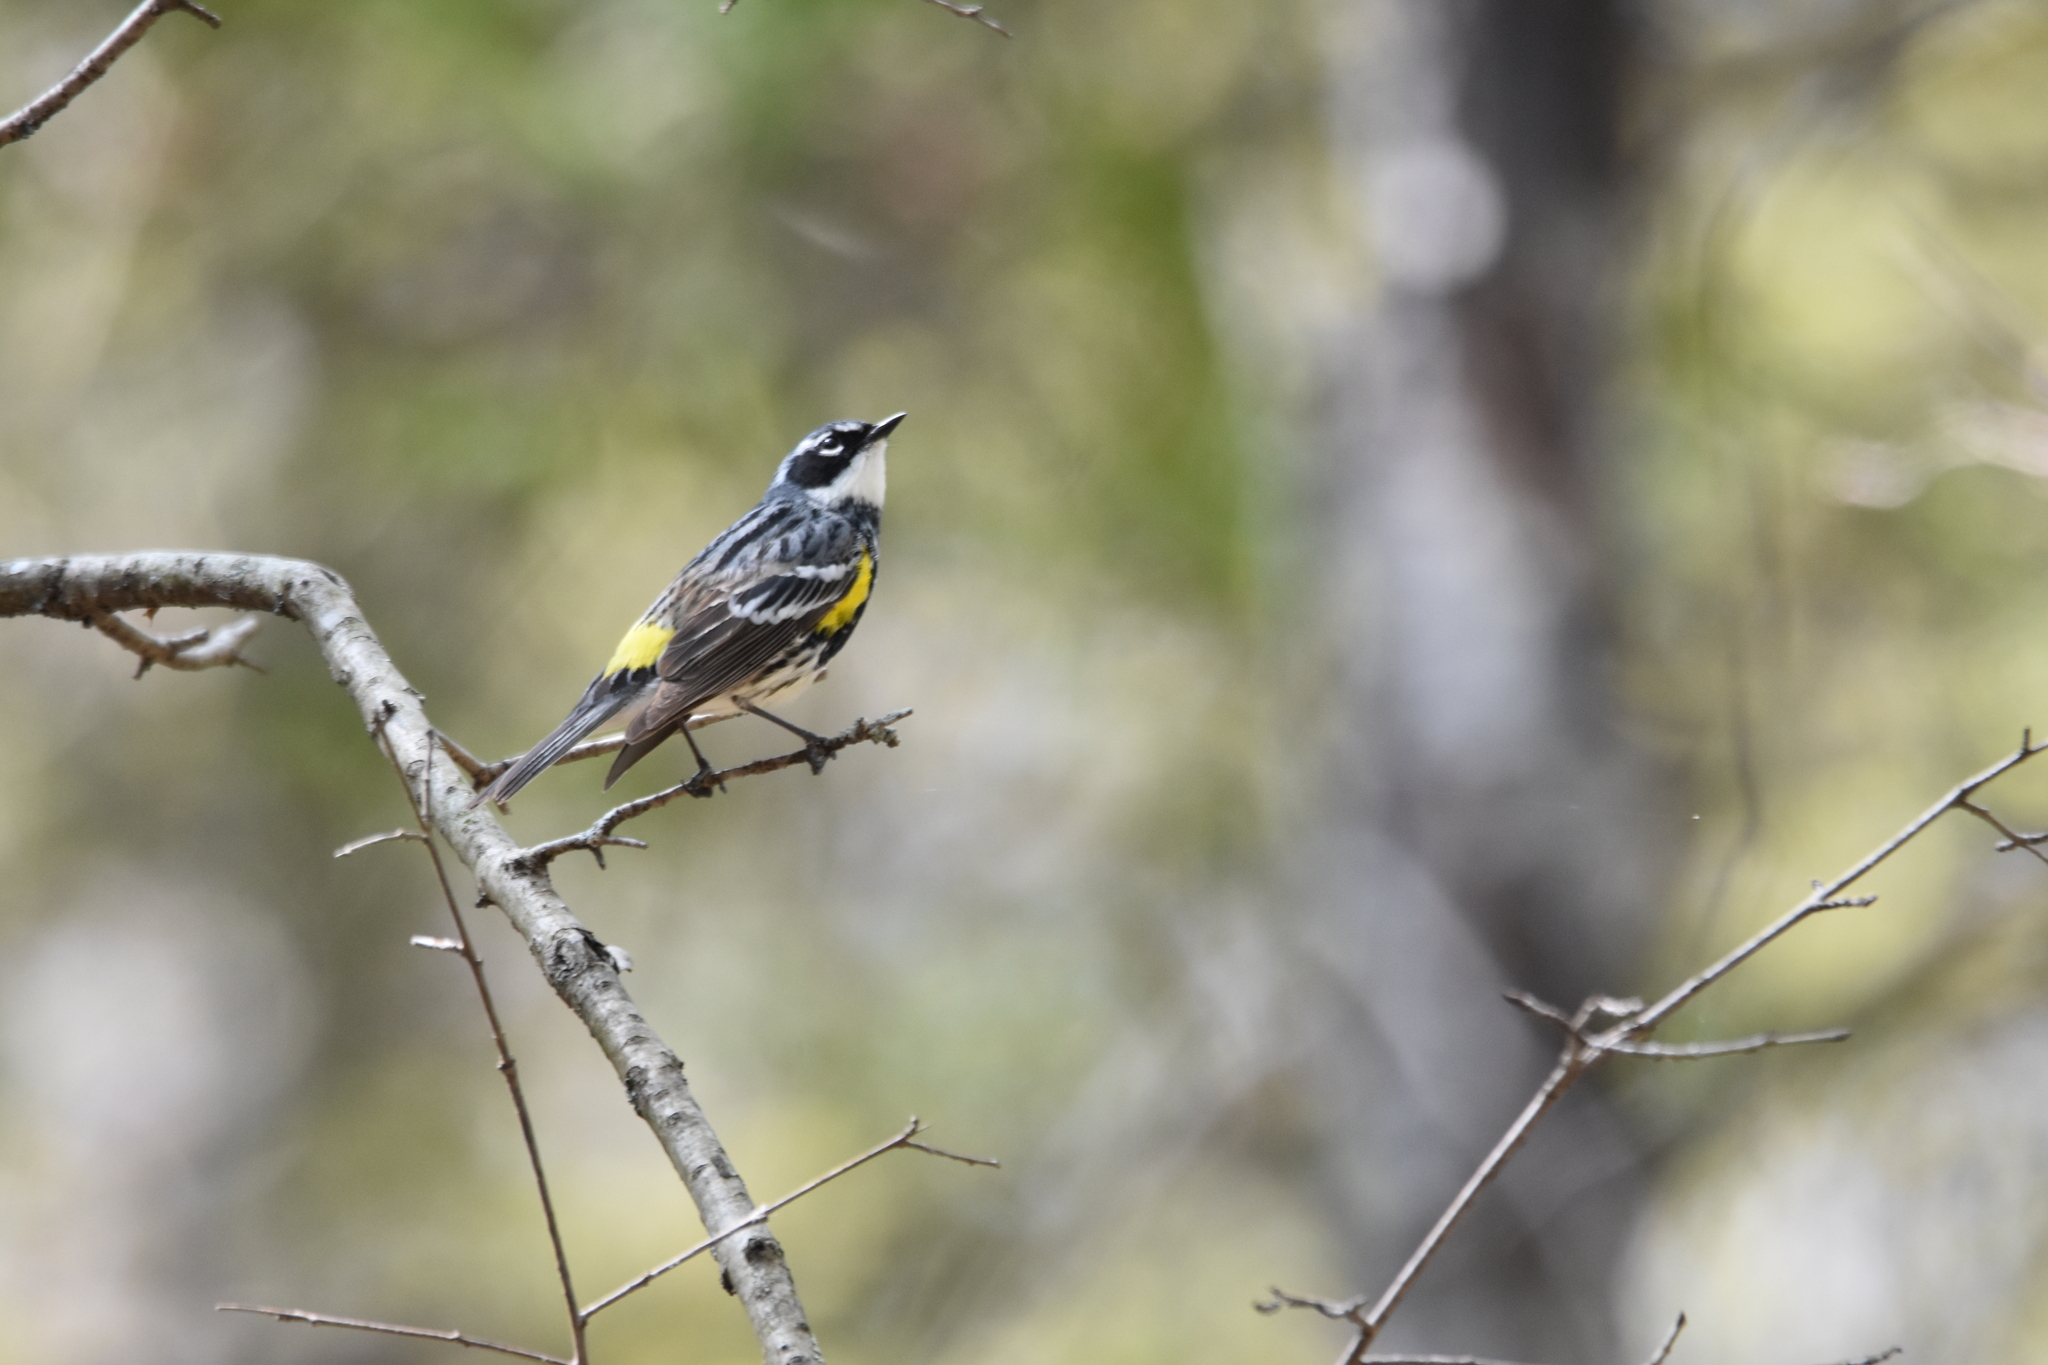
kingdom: Animalia
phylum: Chordata
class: Aves
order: Passeriformes
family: Parulidae
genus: Setophaga
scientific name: Setophaga coronata
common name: Myrtle warbler
